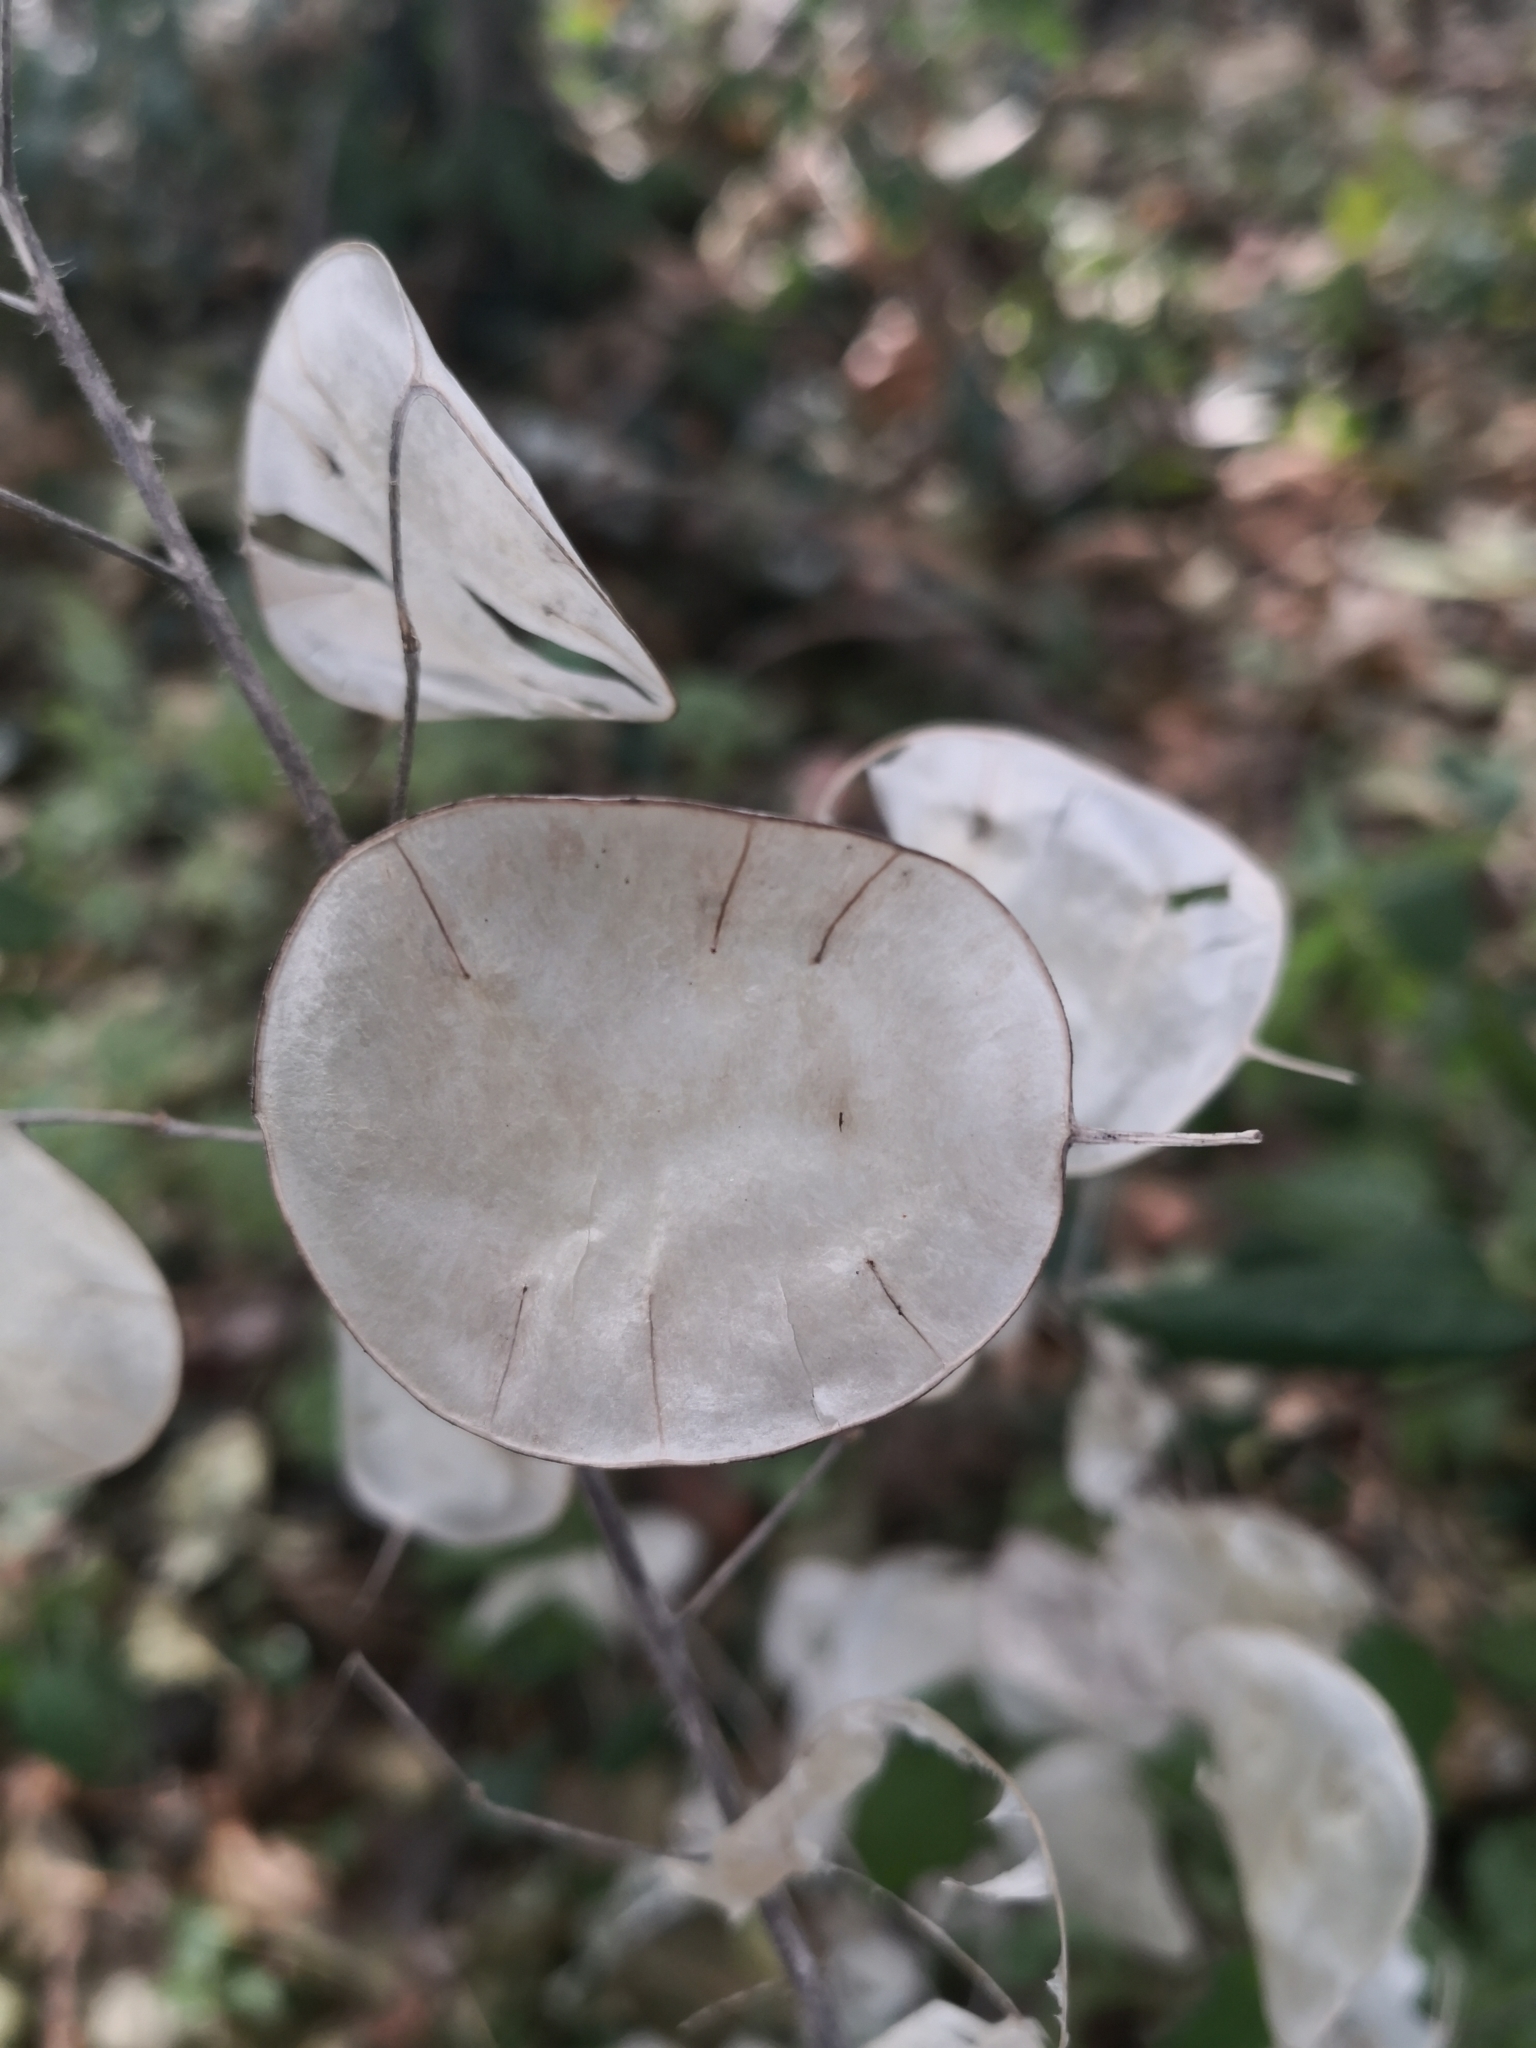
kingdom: Plantae
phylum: Tracheophyta
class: Magnoliopsida
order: Brassicales
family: Brassicaceae
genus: Lunaria
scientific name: Lunaria annua
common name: Honesty
